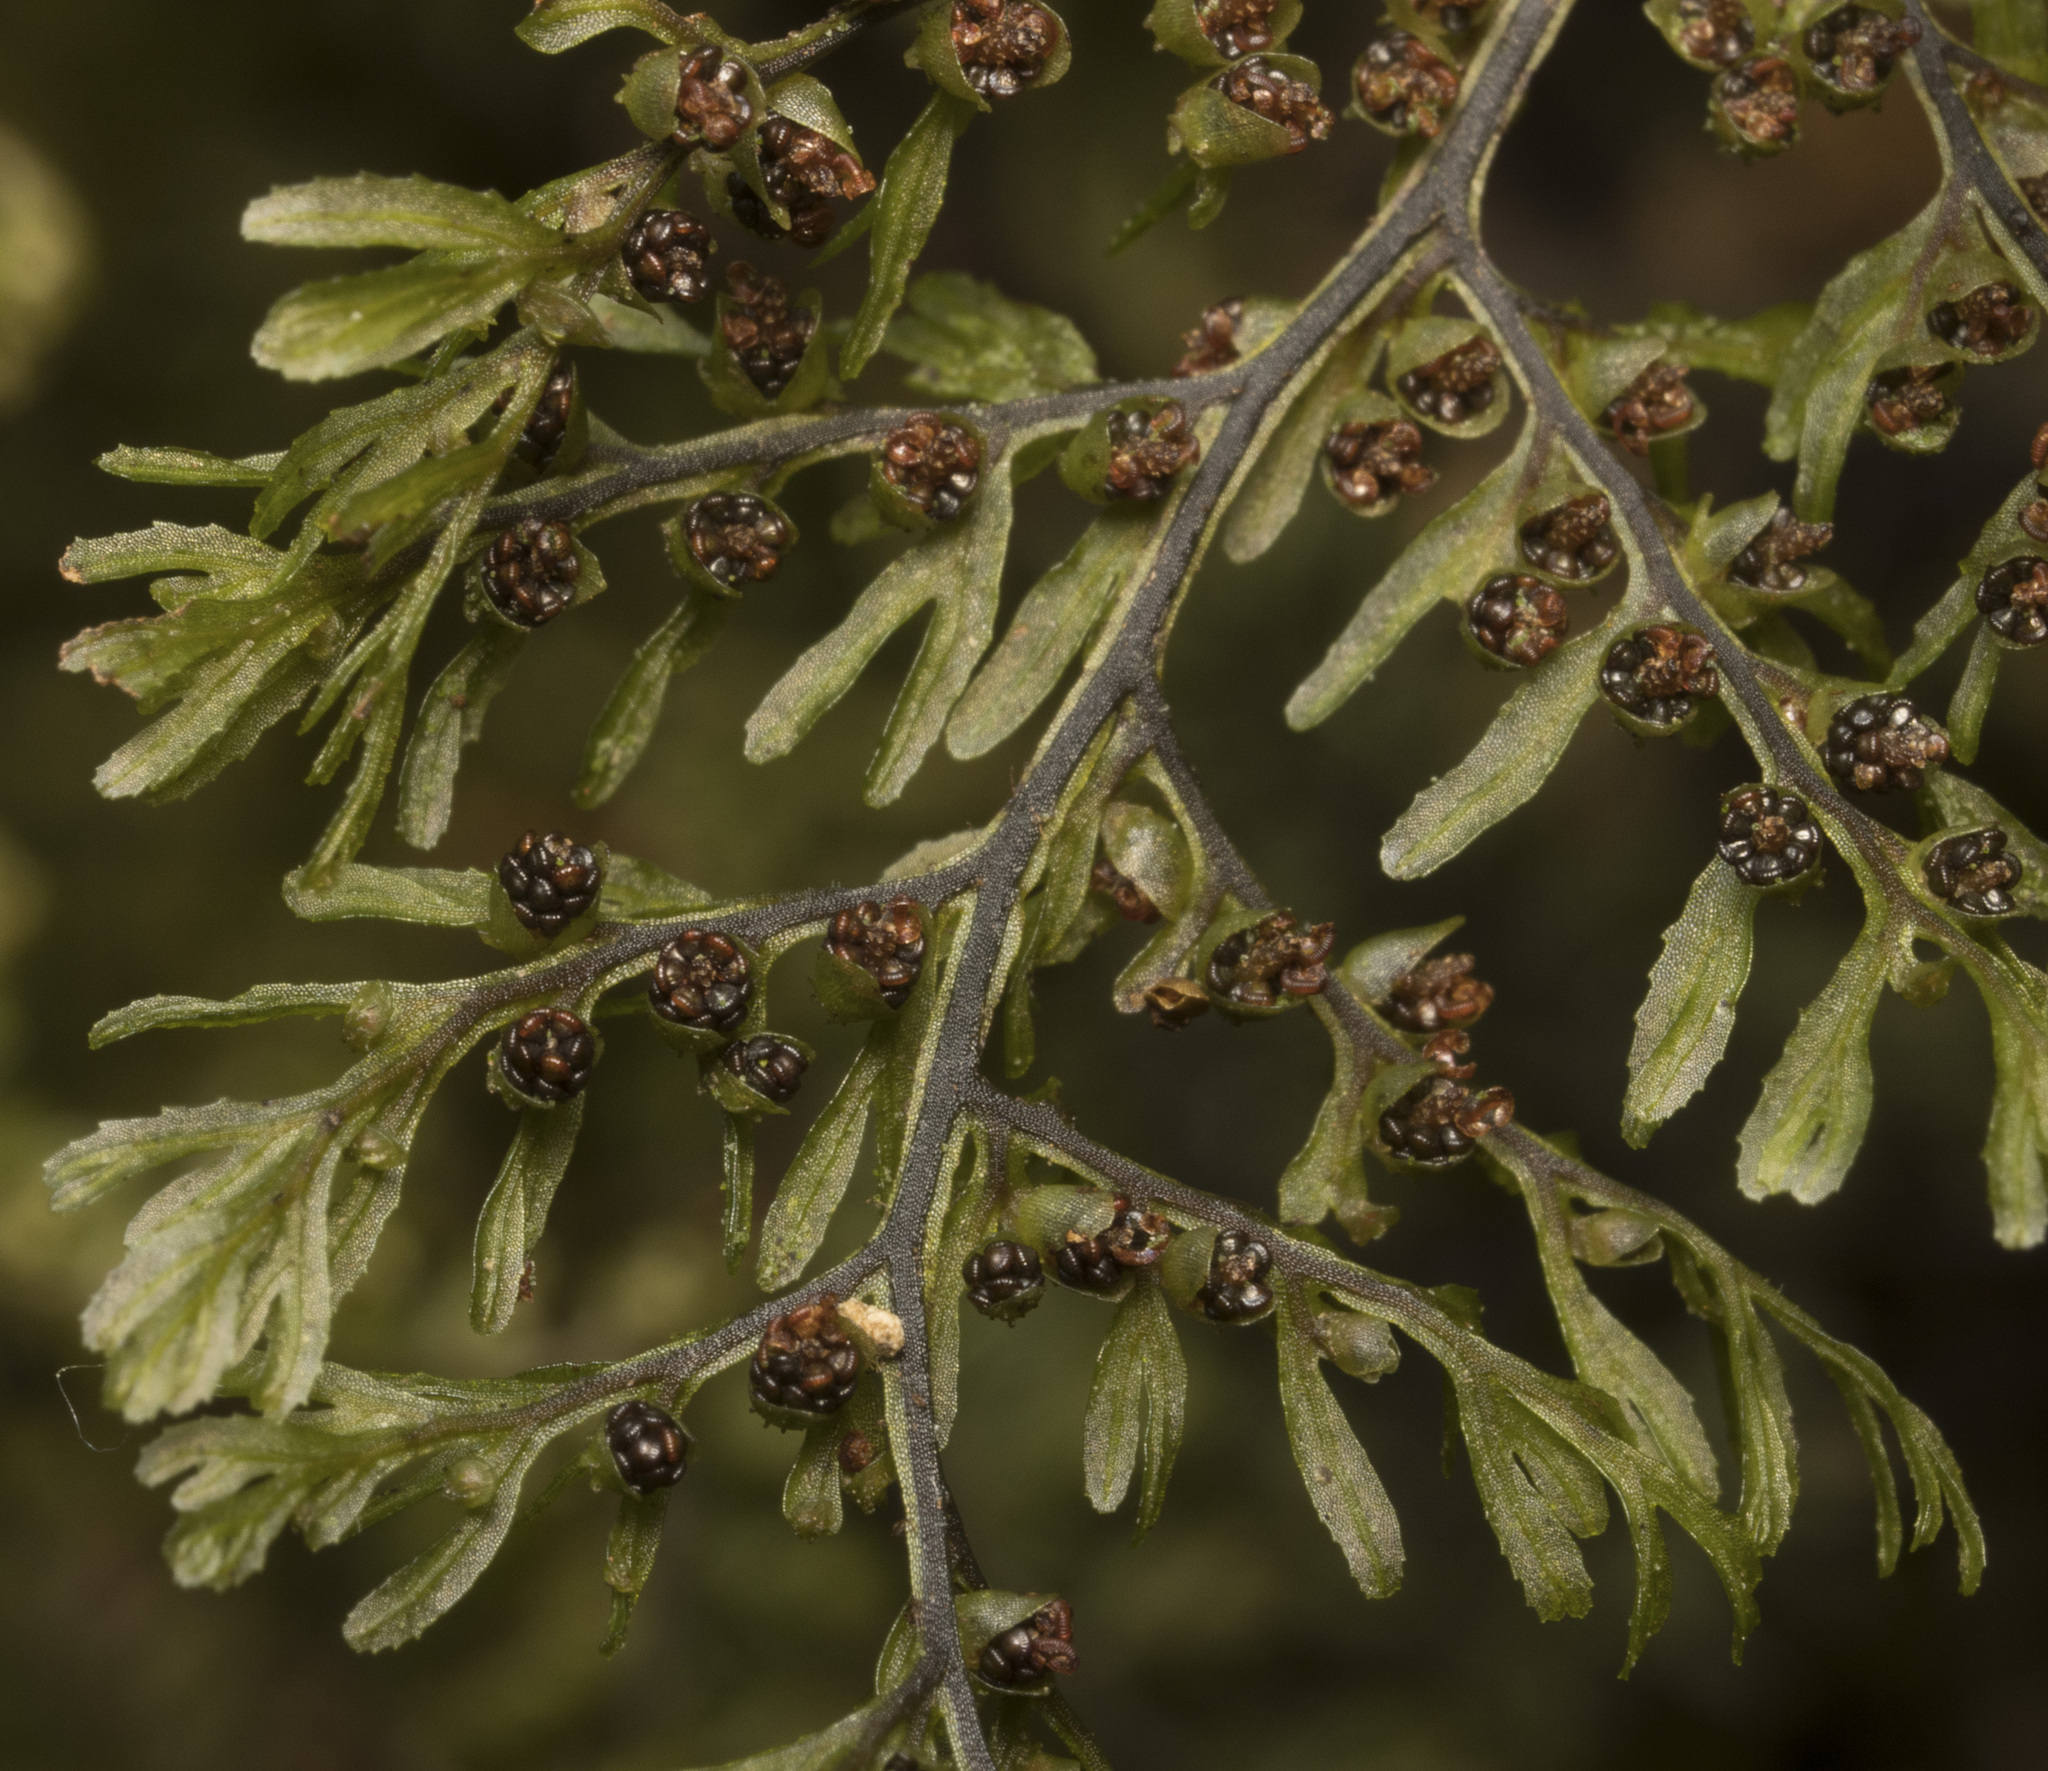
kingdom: Plantae
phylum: Tracheophyta
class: Polypodiopsida
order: Hymenophyllales
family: Hymenophyllaceae
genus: Hymenophyllum
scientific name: Hymenophyllum dentatum
